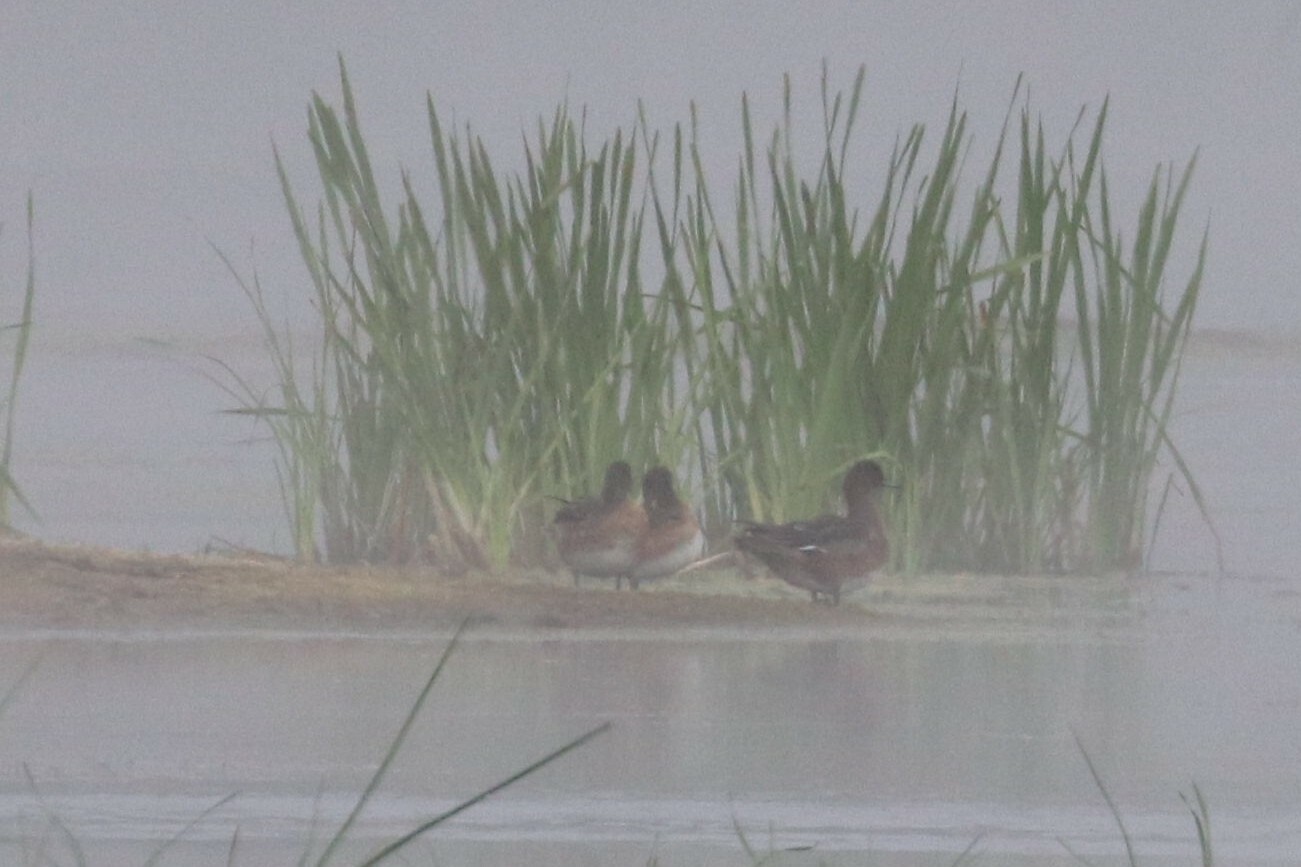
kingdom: Animalia
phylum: Chordata
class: Aves
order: Anseriformes
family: Anatidae
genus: Mareca
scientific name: Mareca penelope
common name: Eurasian wigeon
